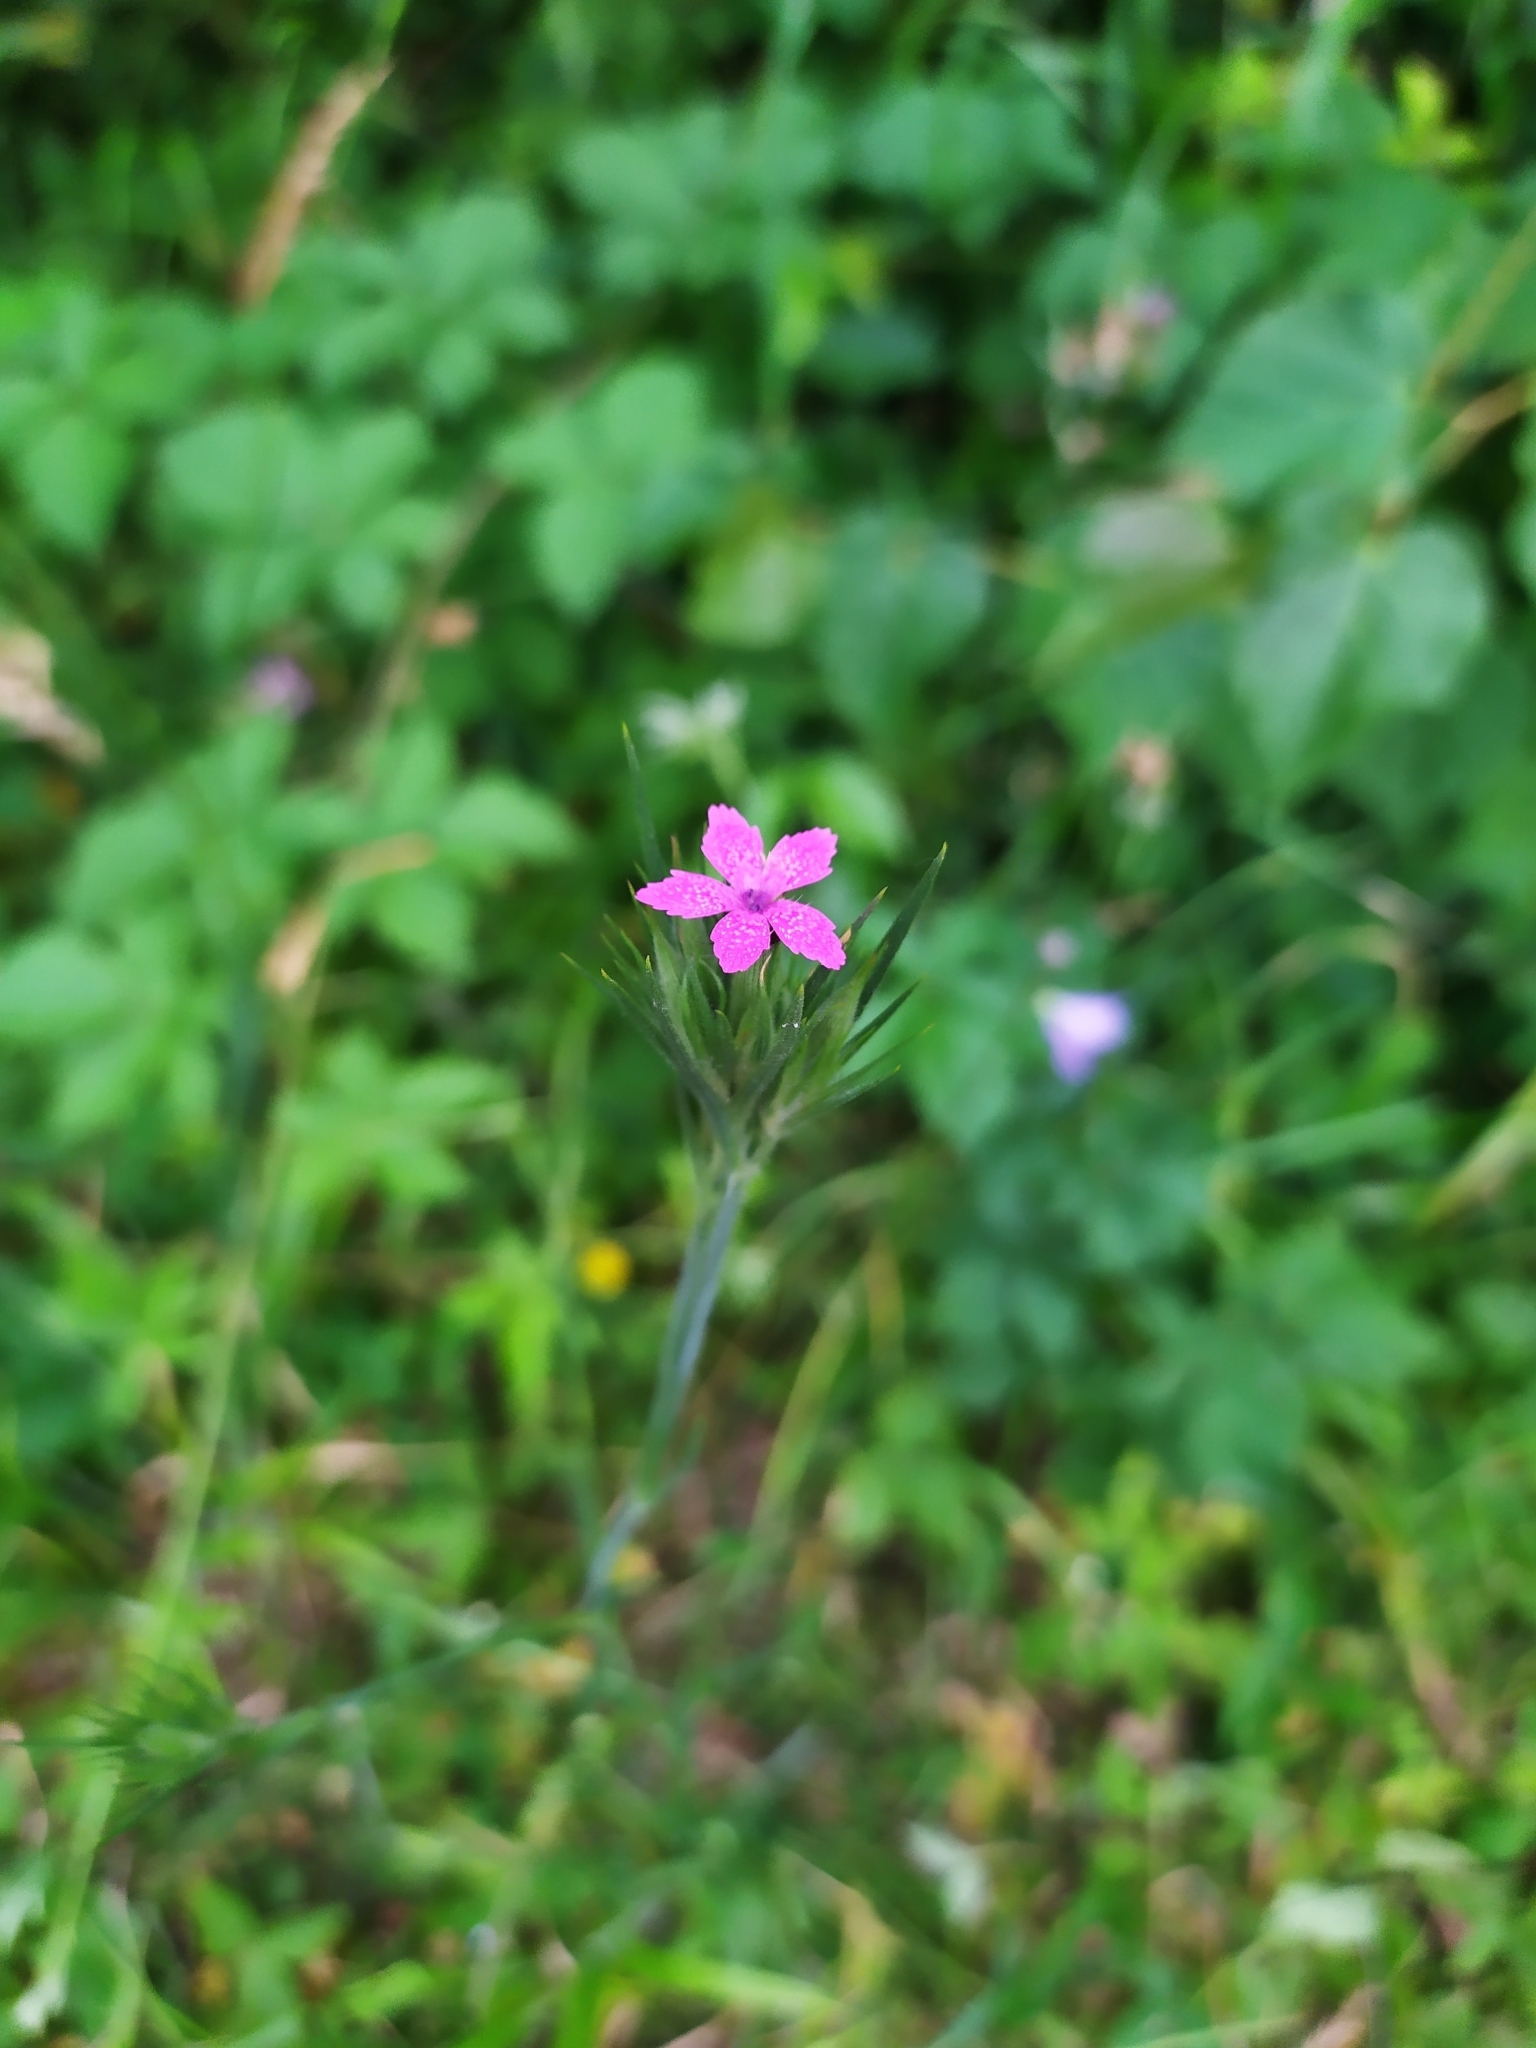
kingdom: Plantae
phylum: Tracheophyta
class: Magnoliopsida
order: Caryophyllales
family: Caryophyllaceae
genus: Dianthus
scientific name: Dianthus armeria
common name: Deptford pink
